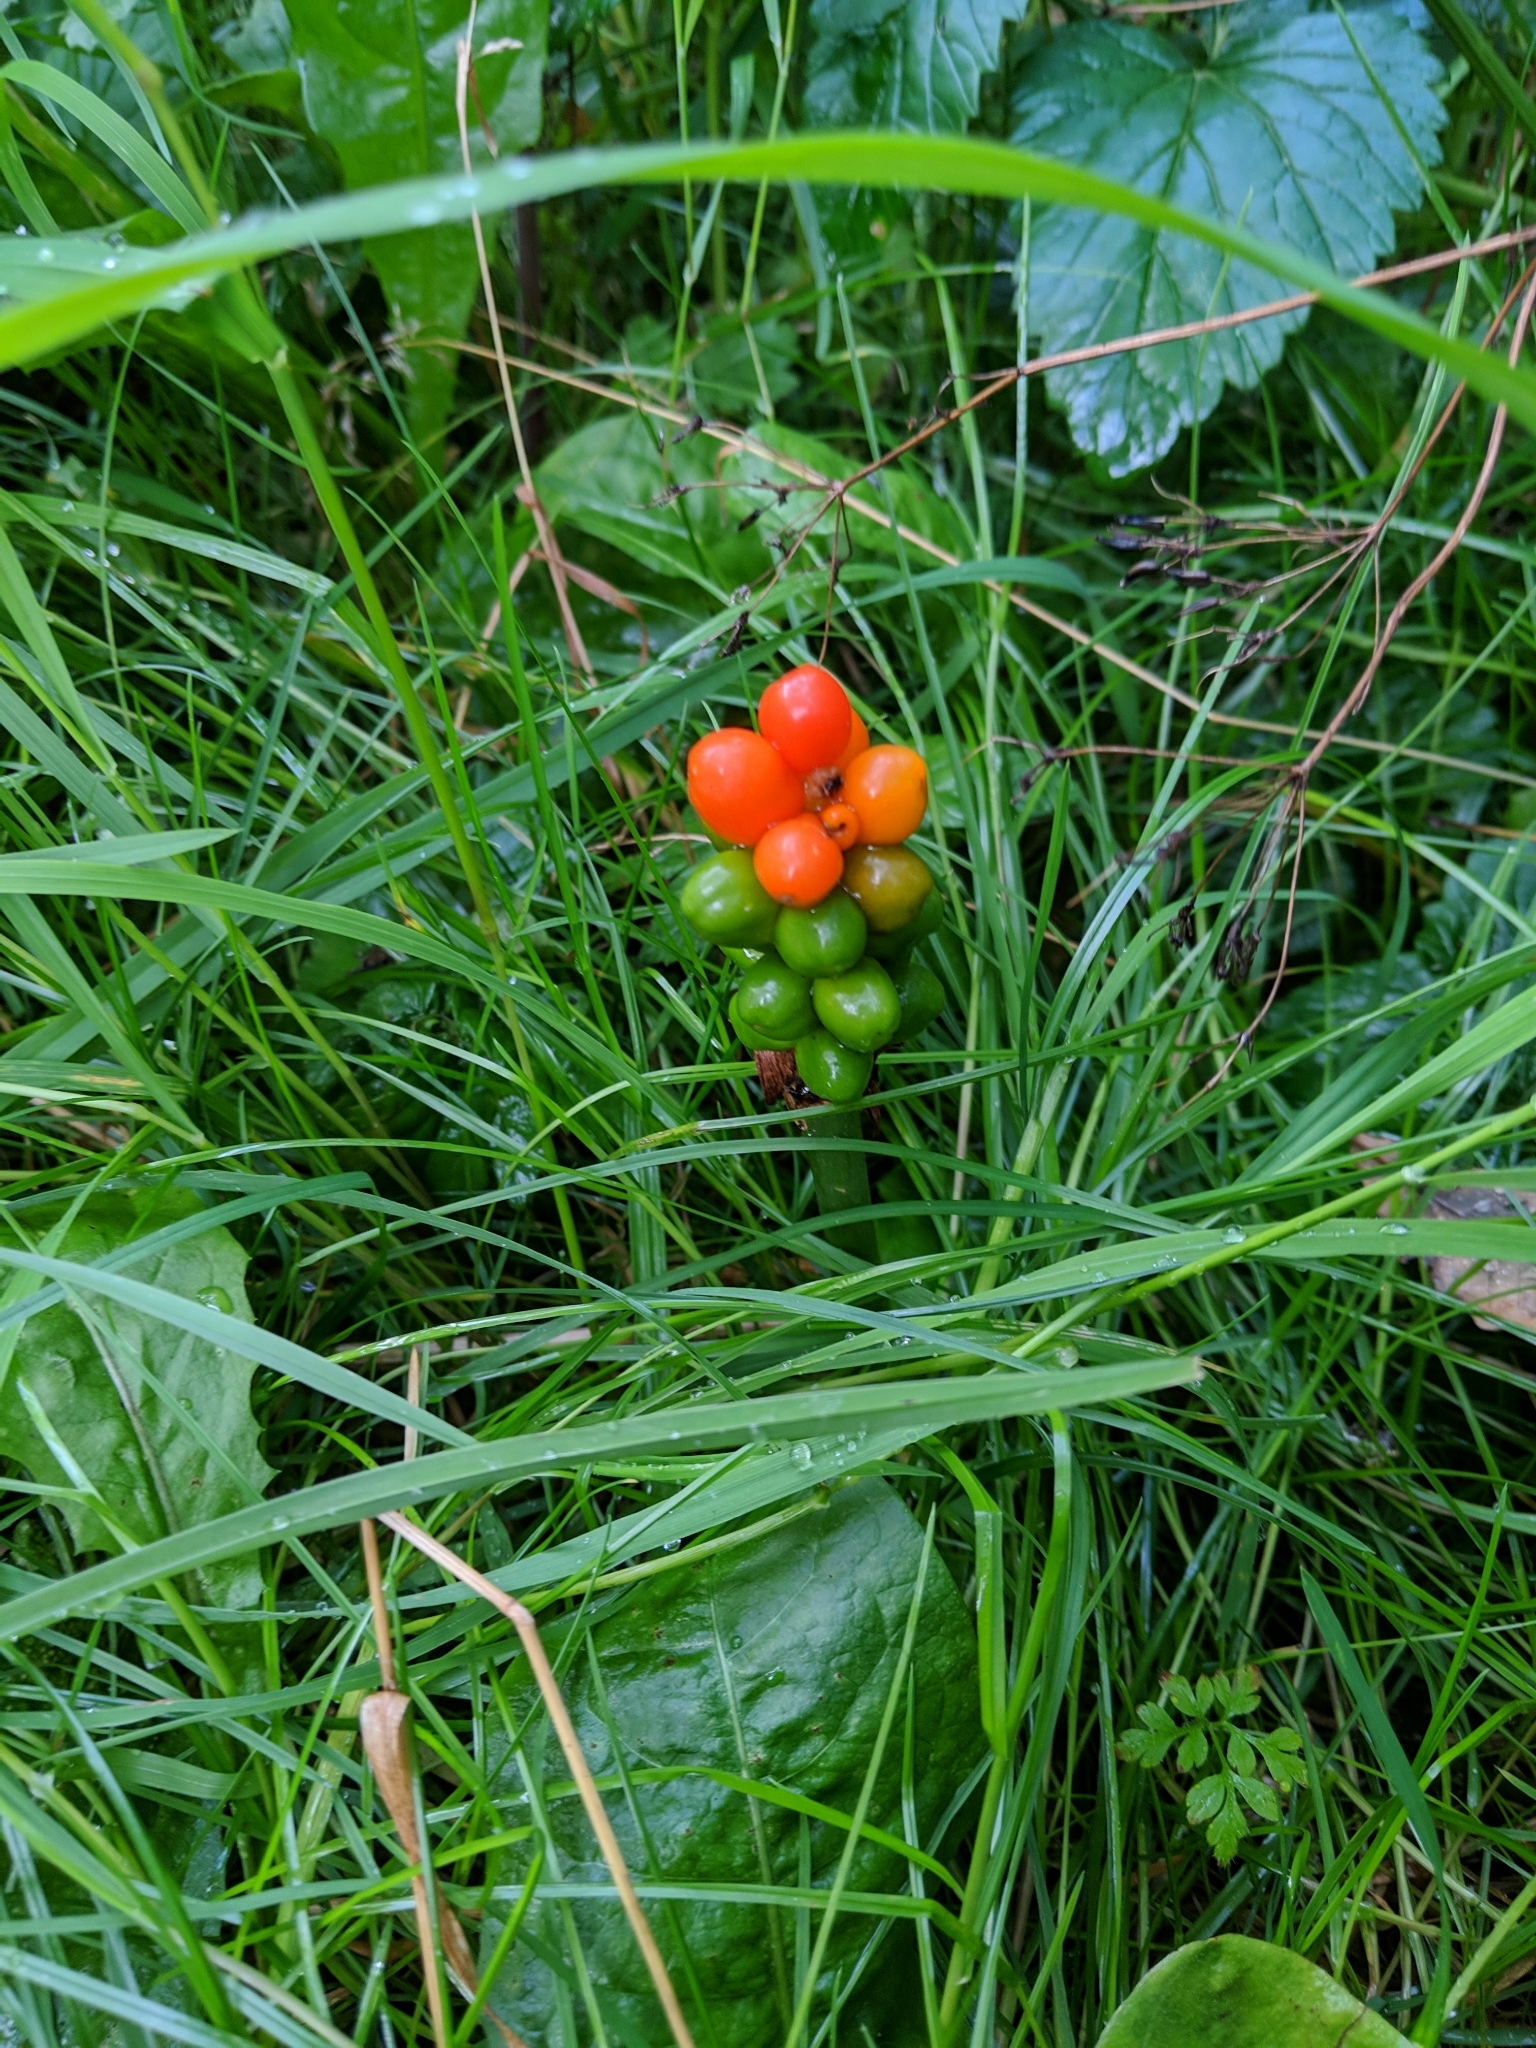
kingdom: Plantae
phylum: Tracheophyta
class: Liliopsida
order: Alismatales
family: Araceae
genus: Arum
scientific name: Arum maculatum
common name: Lords-and-ladies
